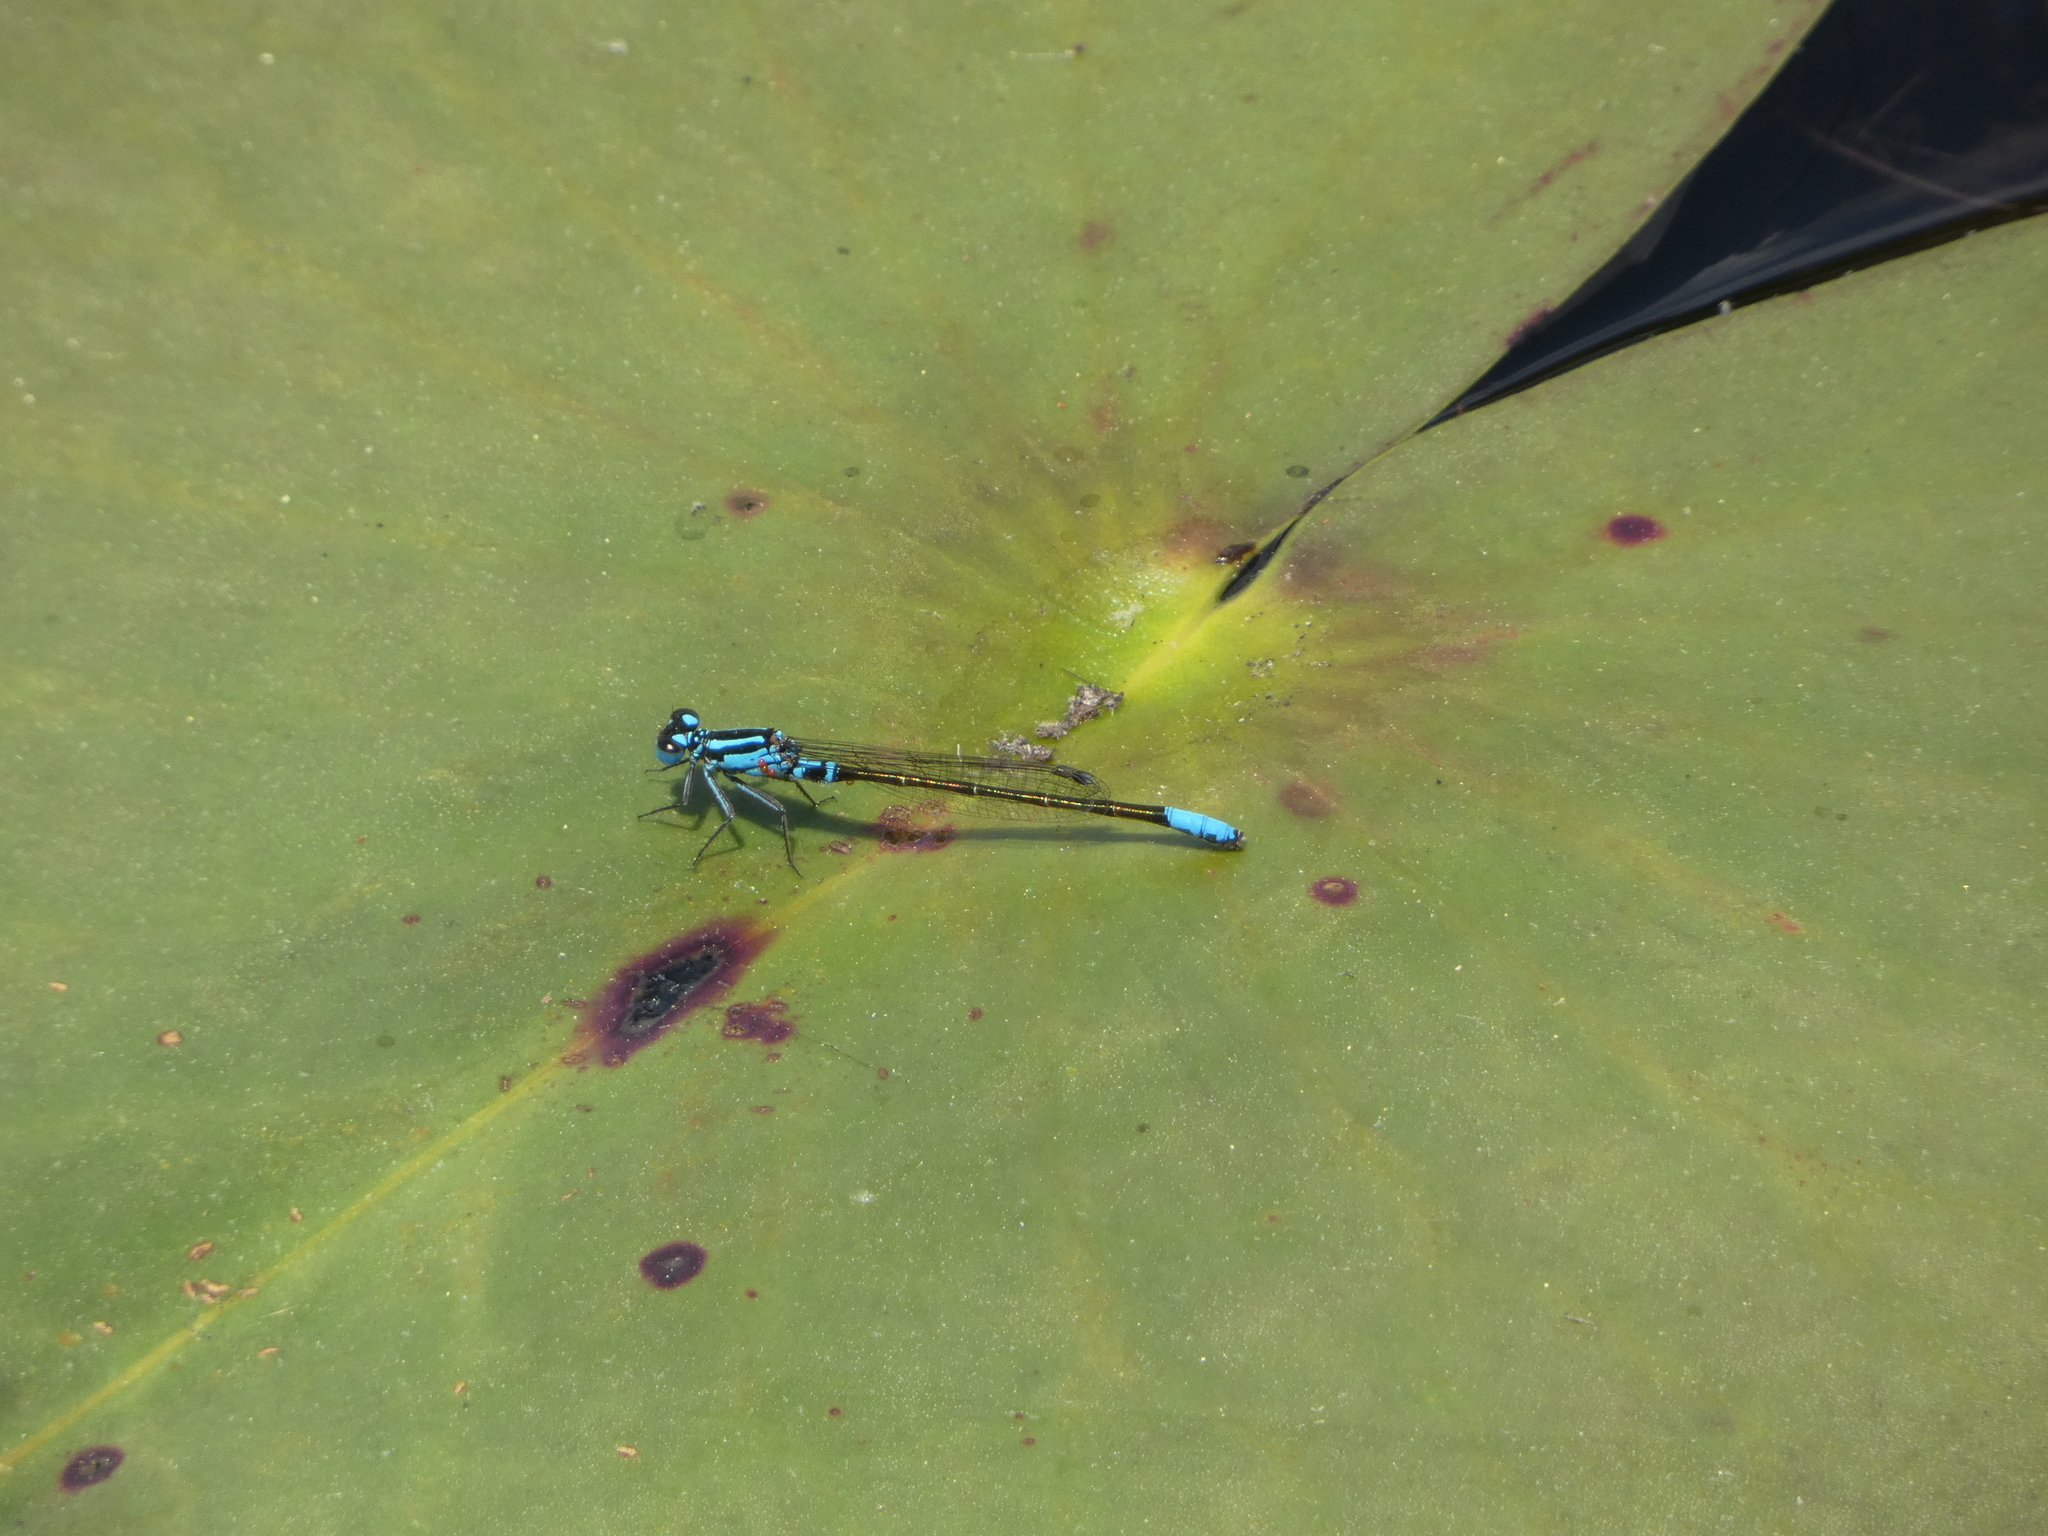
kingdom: Animalia
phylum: Arthropoda
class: Insecta
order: Odonata
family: Coenagrionidae
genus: Ischnura
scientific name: Ischnura kellicotti
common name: Lilypad forktail
